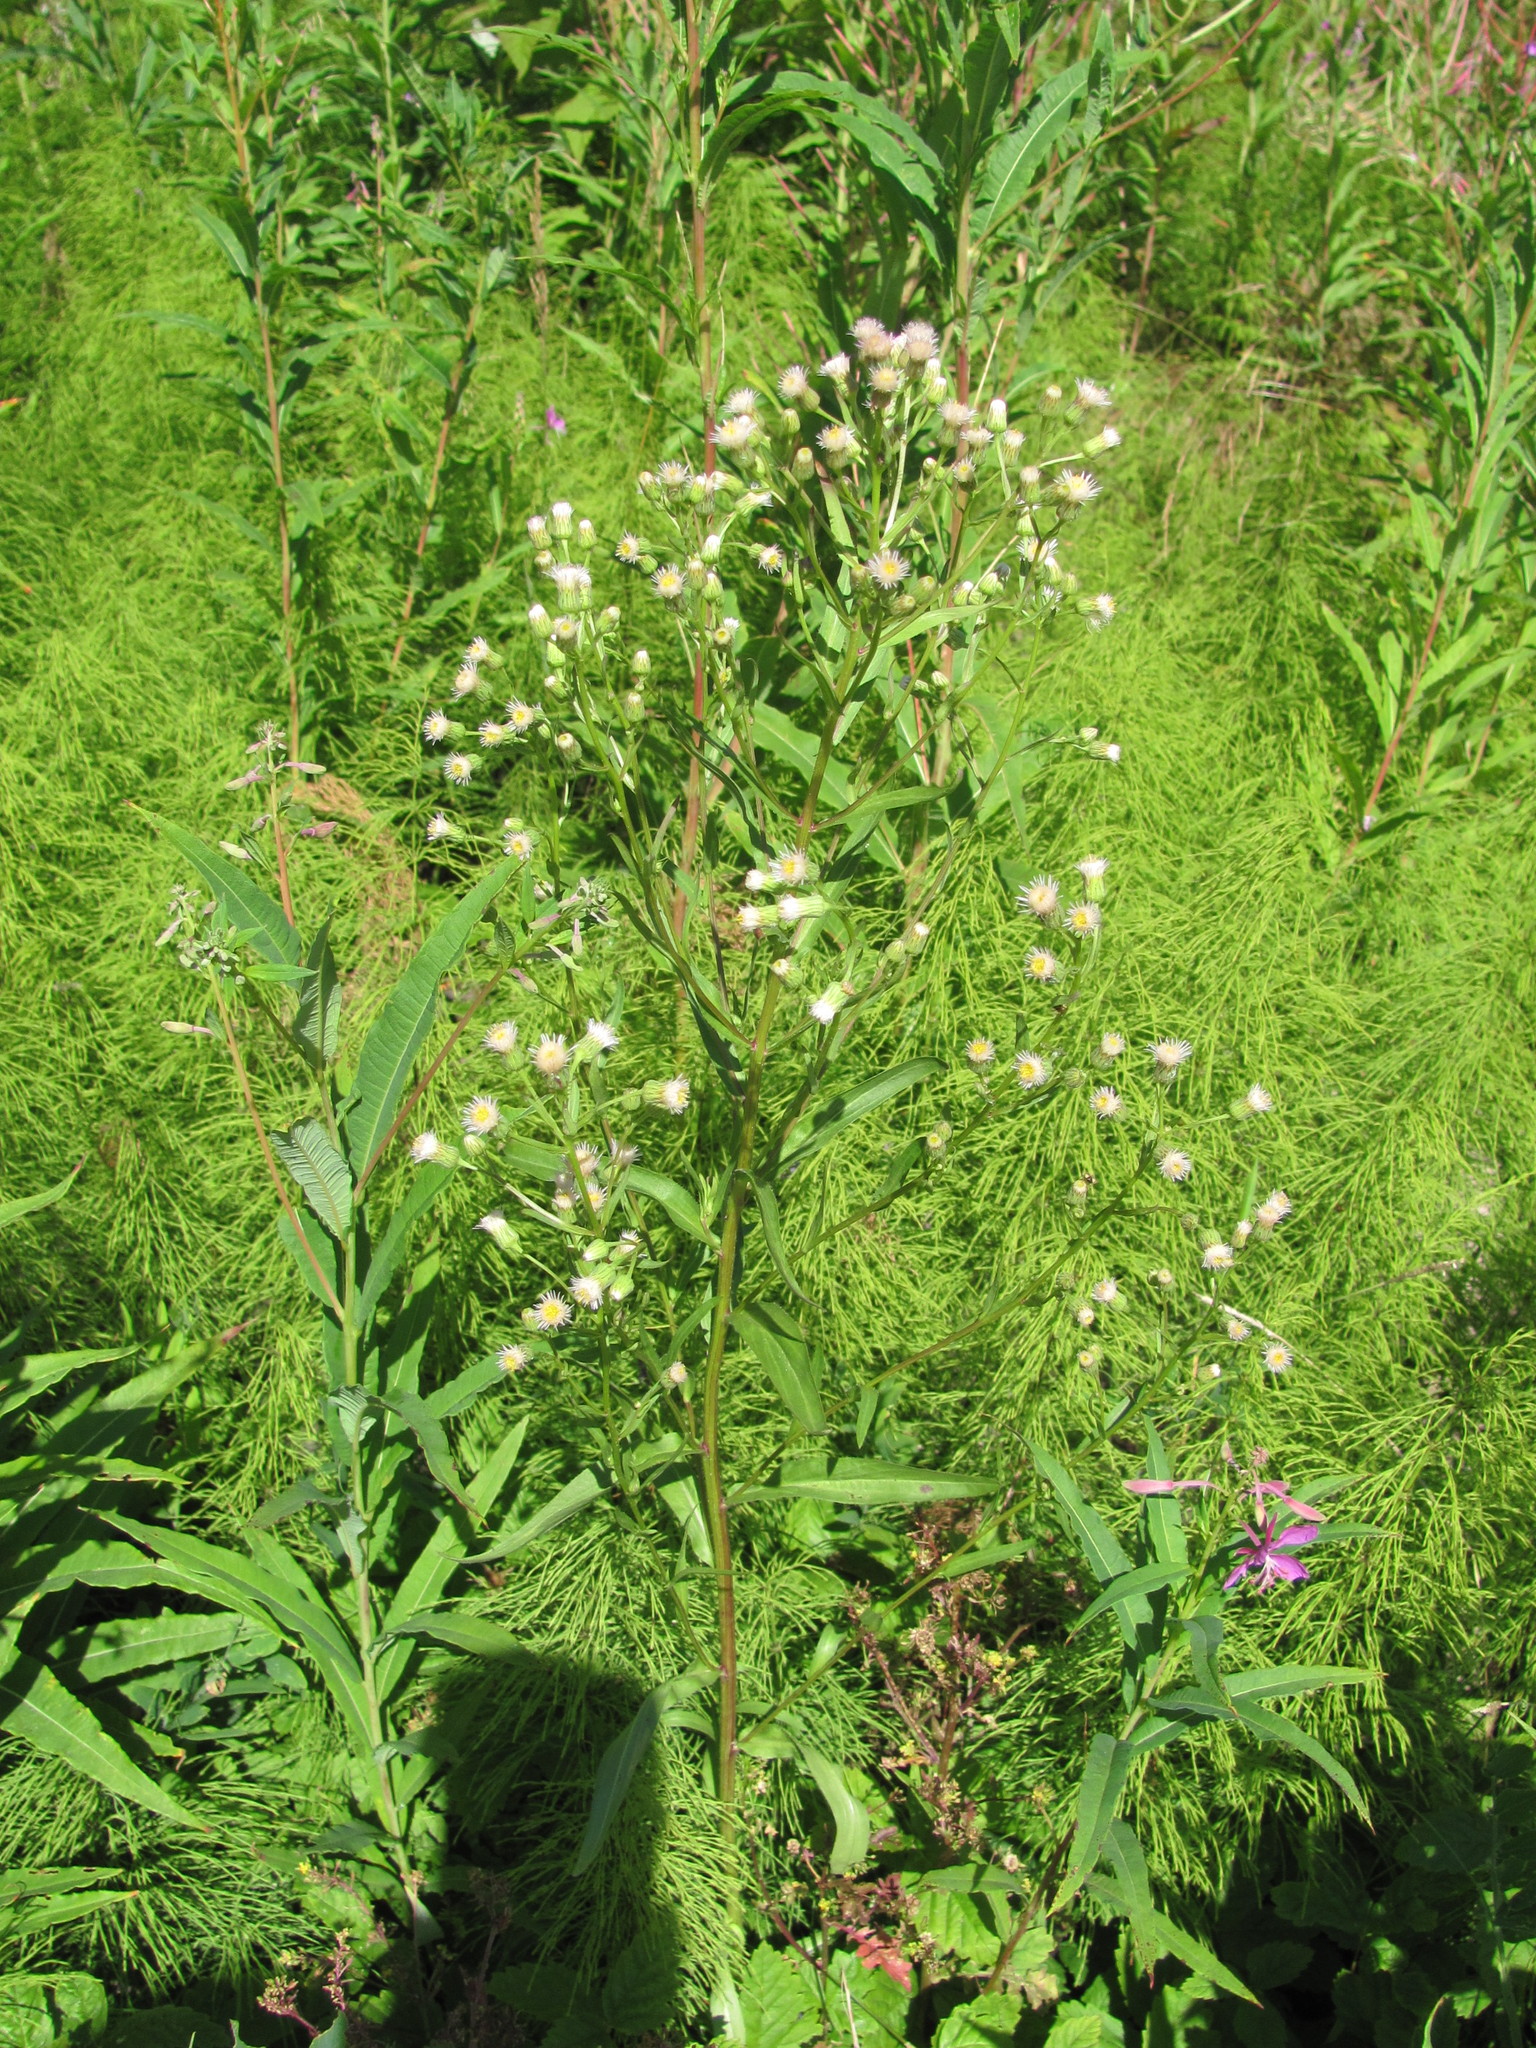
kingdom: Plantae
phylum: Tracheophyta
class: Magnoliopsida
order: Asterales
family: Asteraceae
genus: Erigeron
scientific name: Erigeron acris
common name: Blue fleabane
